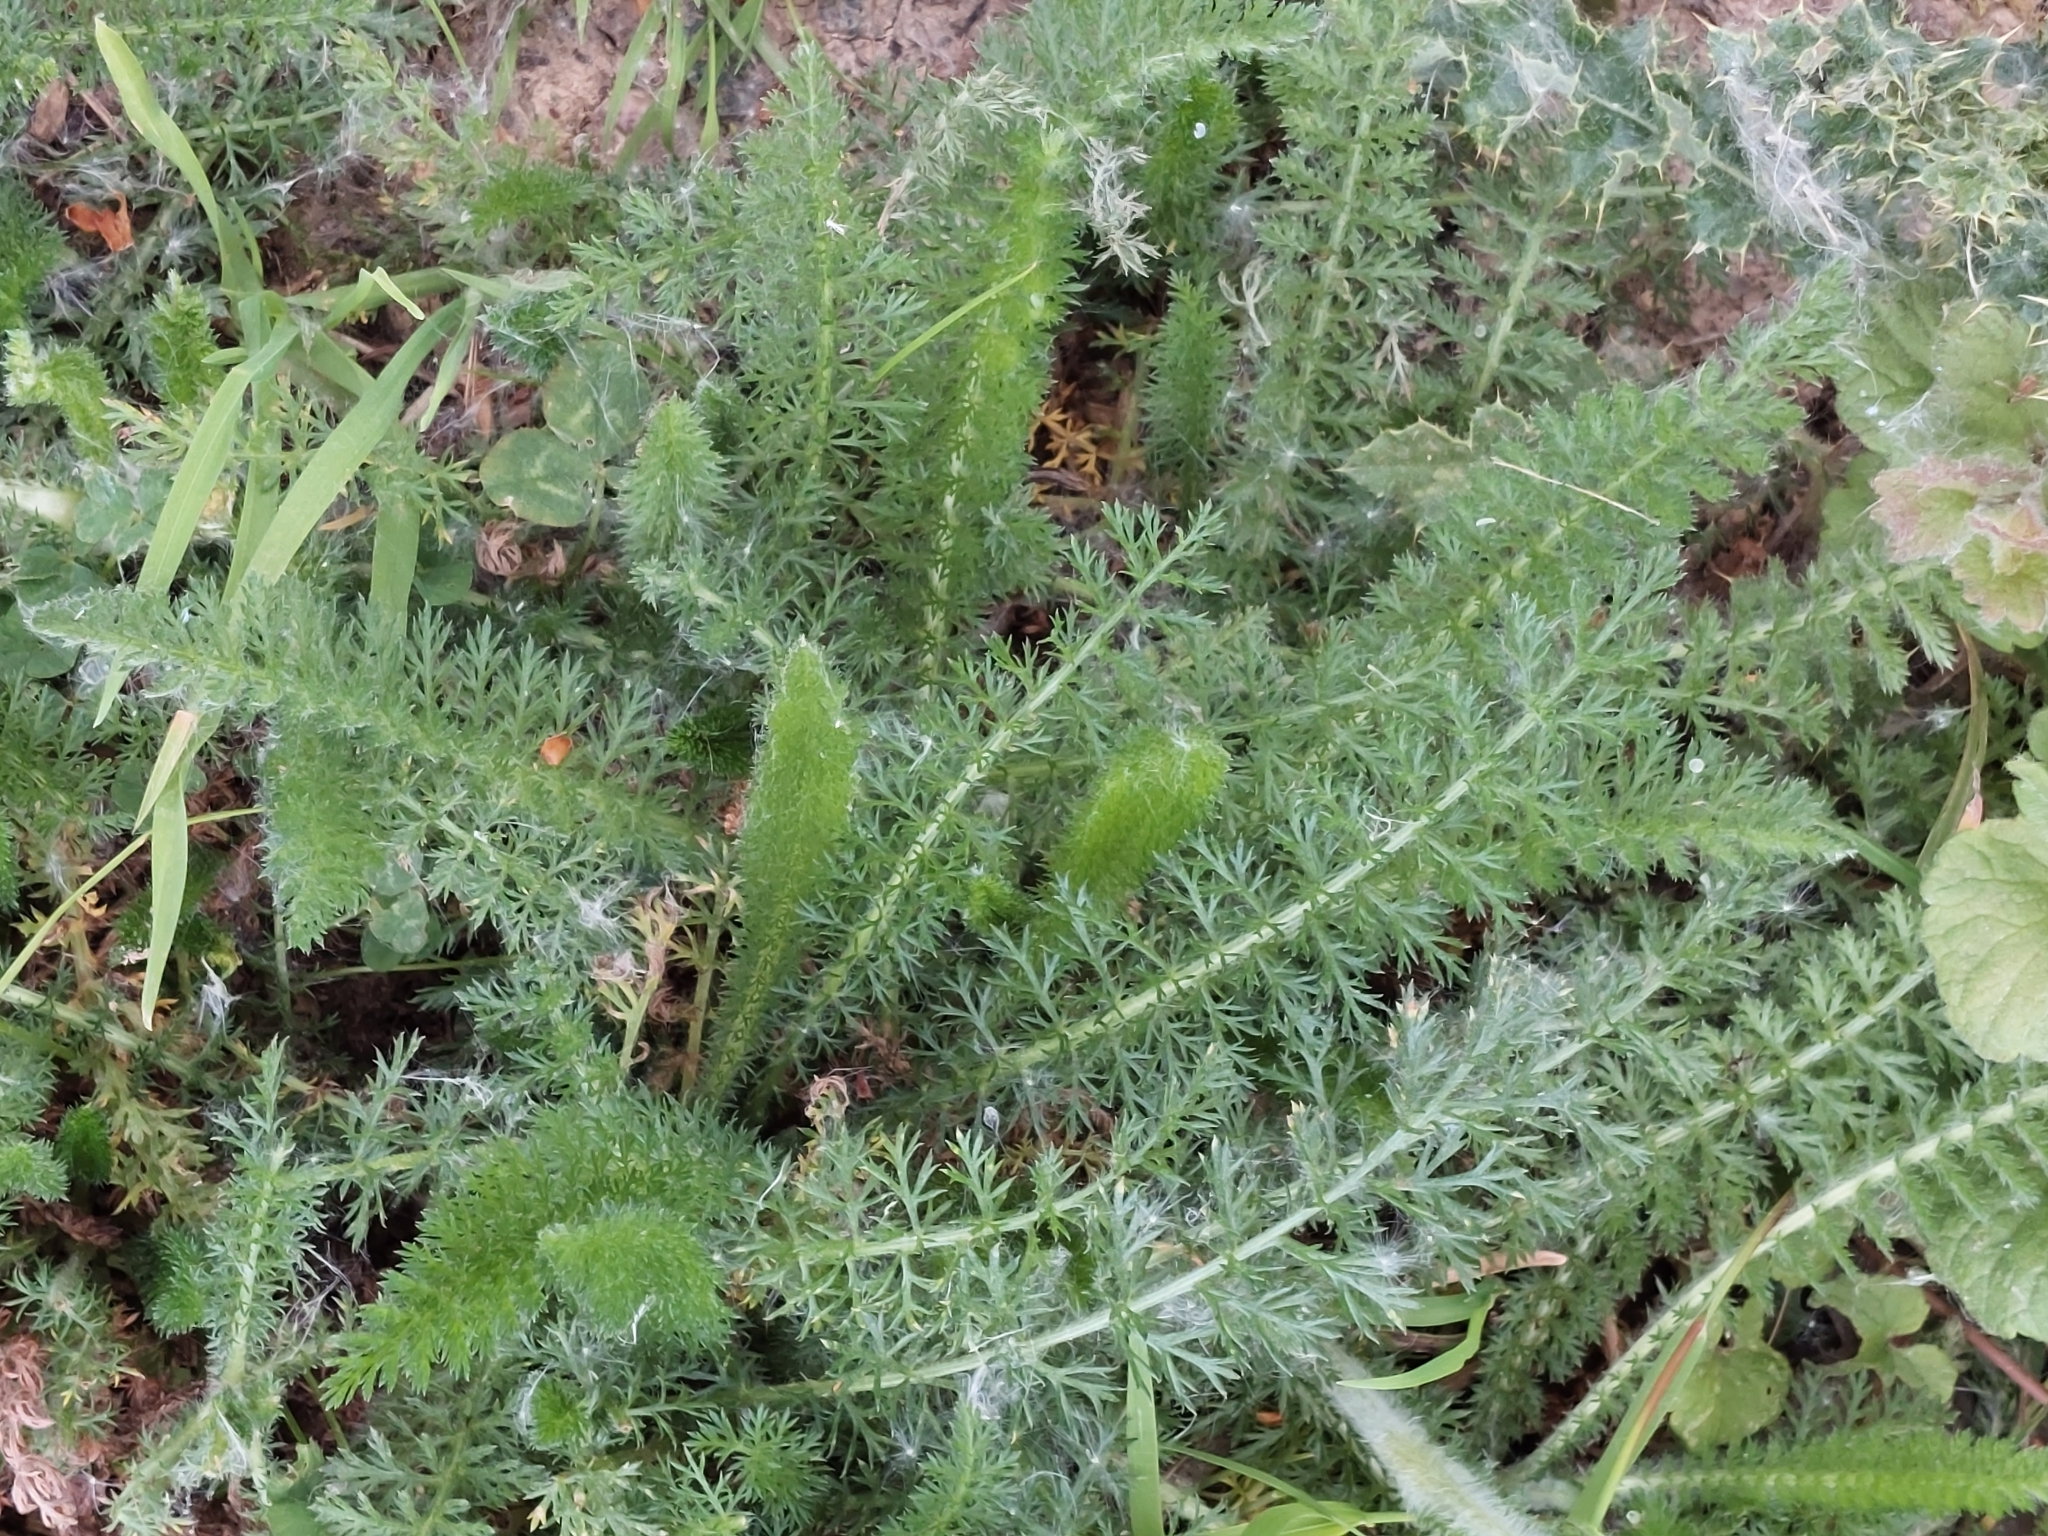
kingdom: Plantae
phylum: Tracheophyta
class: Magnoliopsida
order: Asterales
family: Asteraceae
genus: Achillea
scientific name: Achillea millefolium
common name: Yarrow
